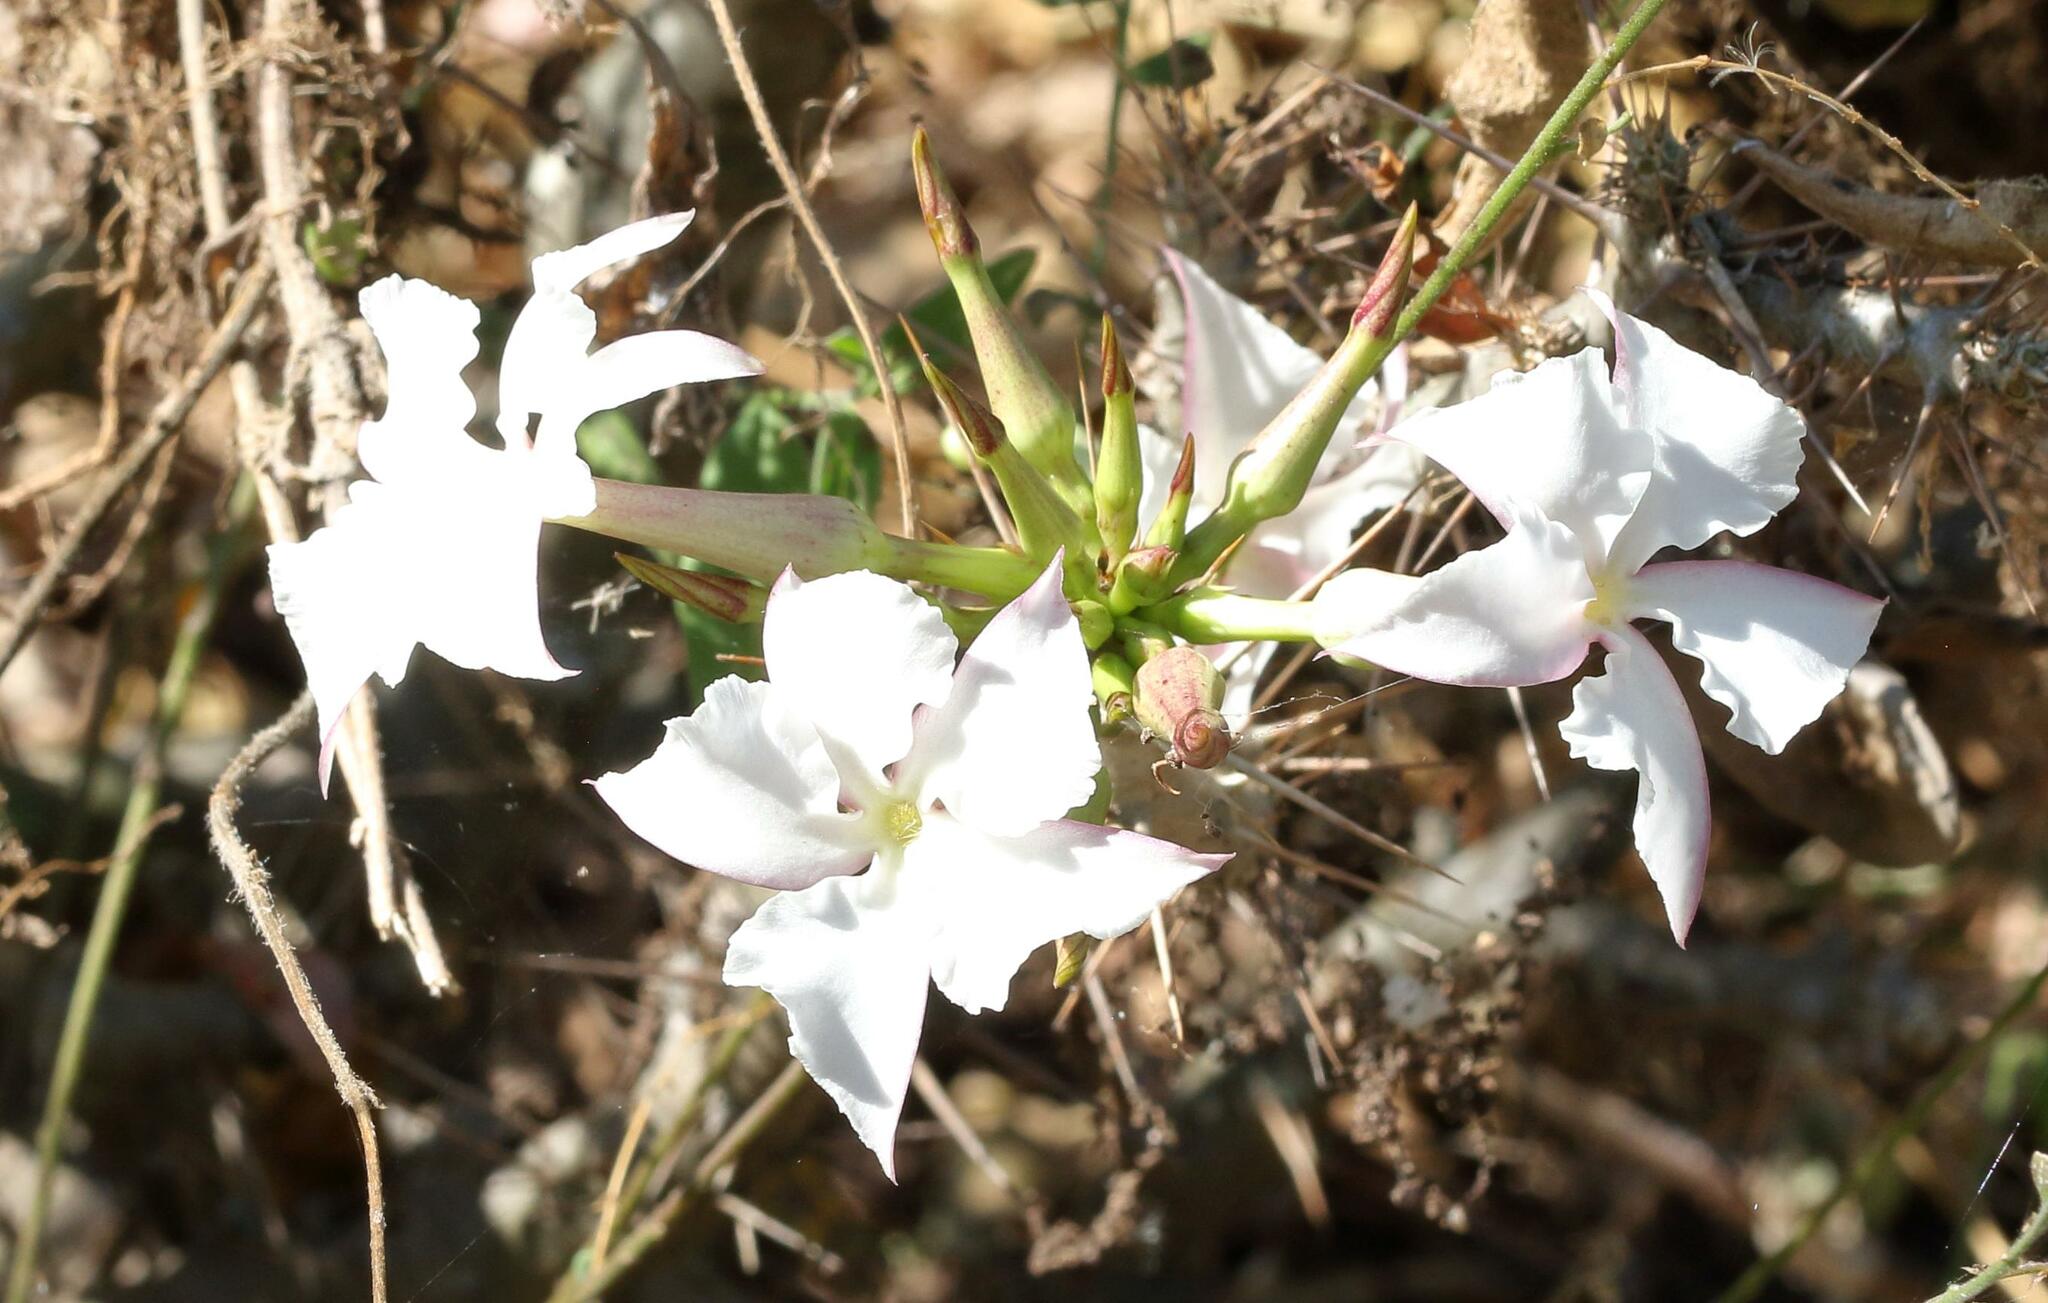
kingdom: Plantae
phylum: Tracheophyta
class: Magnoliopsida
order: Gentianales
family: Apocynaceae
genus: Pachypodium
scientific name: Pachypodium saundersii
